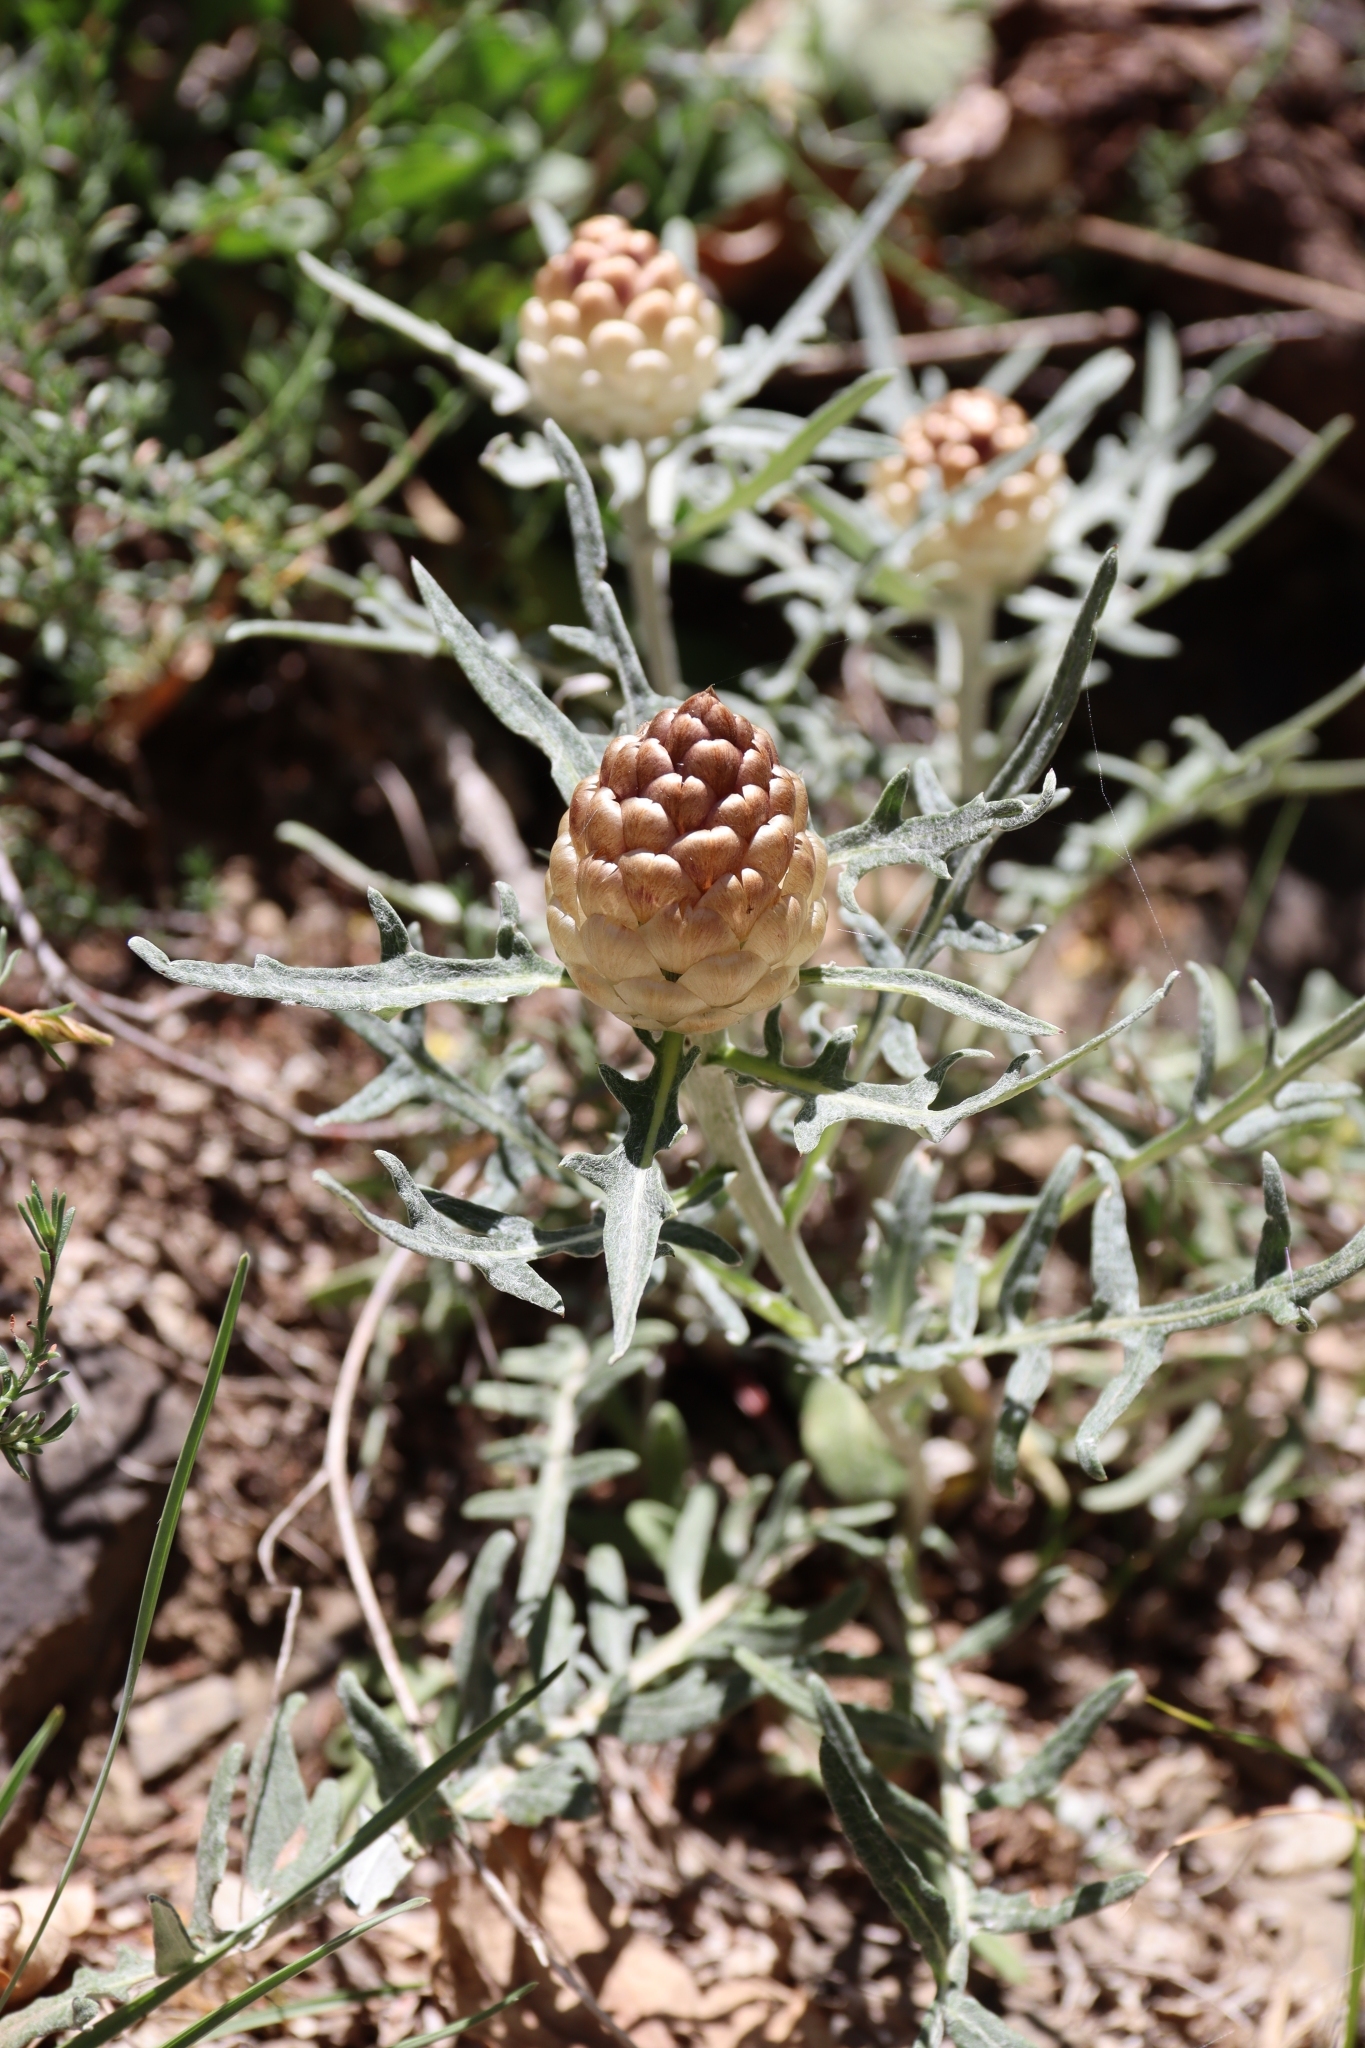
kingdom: Plantae
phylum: Tracheophyta
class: Magnoliopsida
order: Asterales
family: Asteraceae
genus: Leuzea
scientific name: Leuzea conifera
